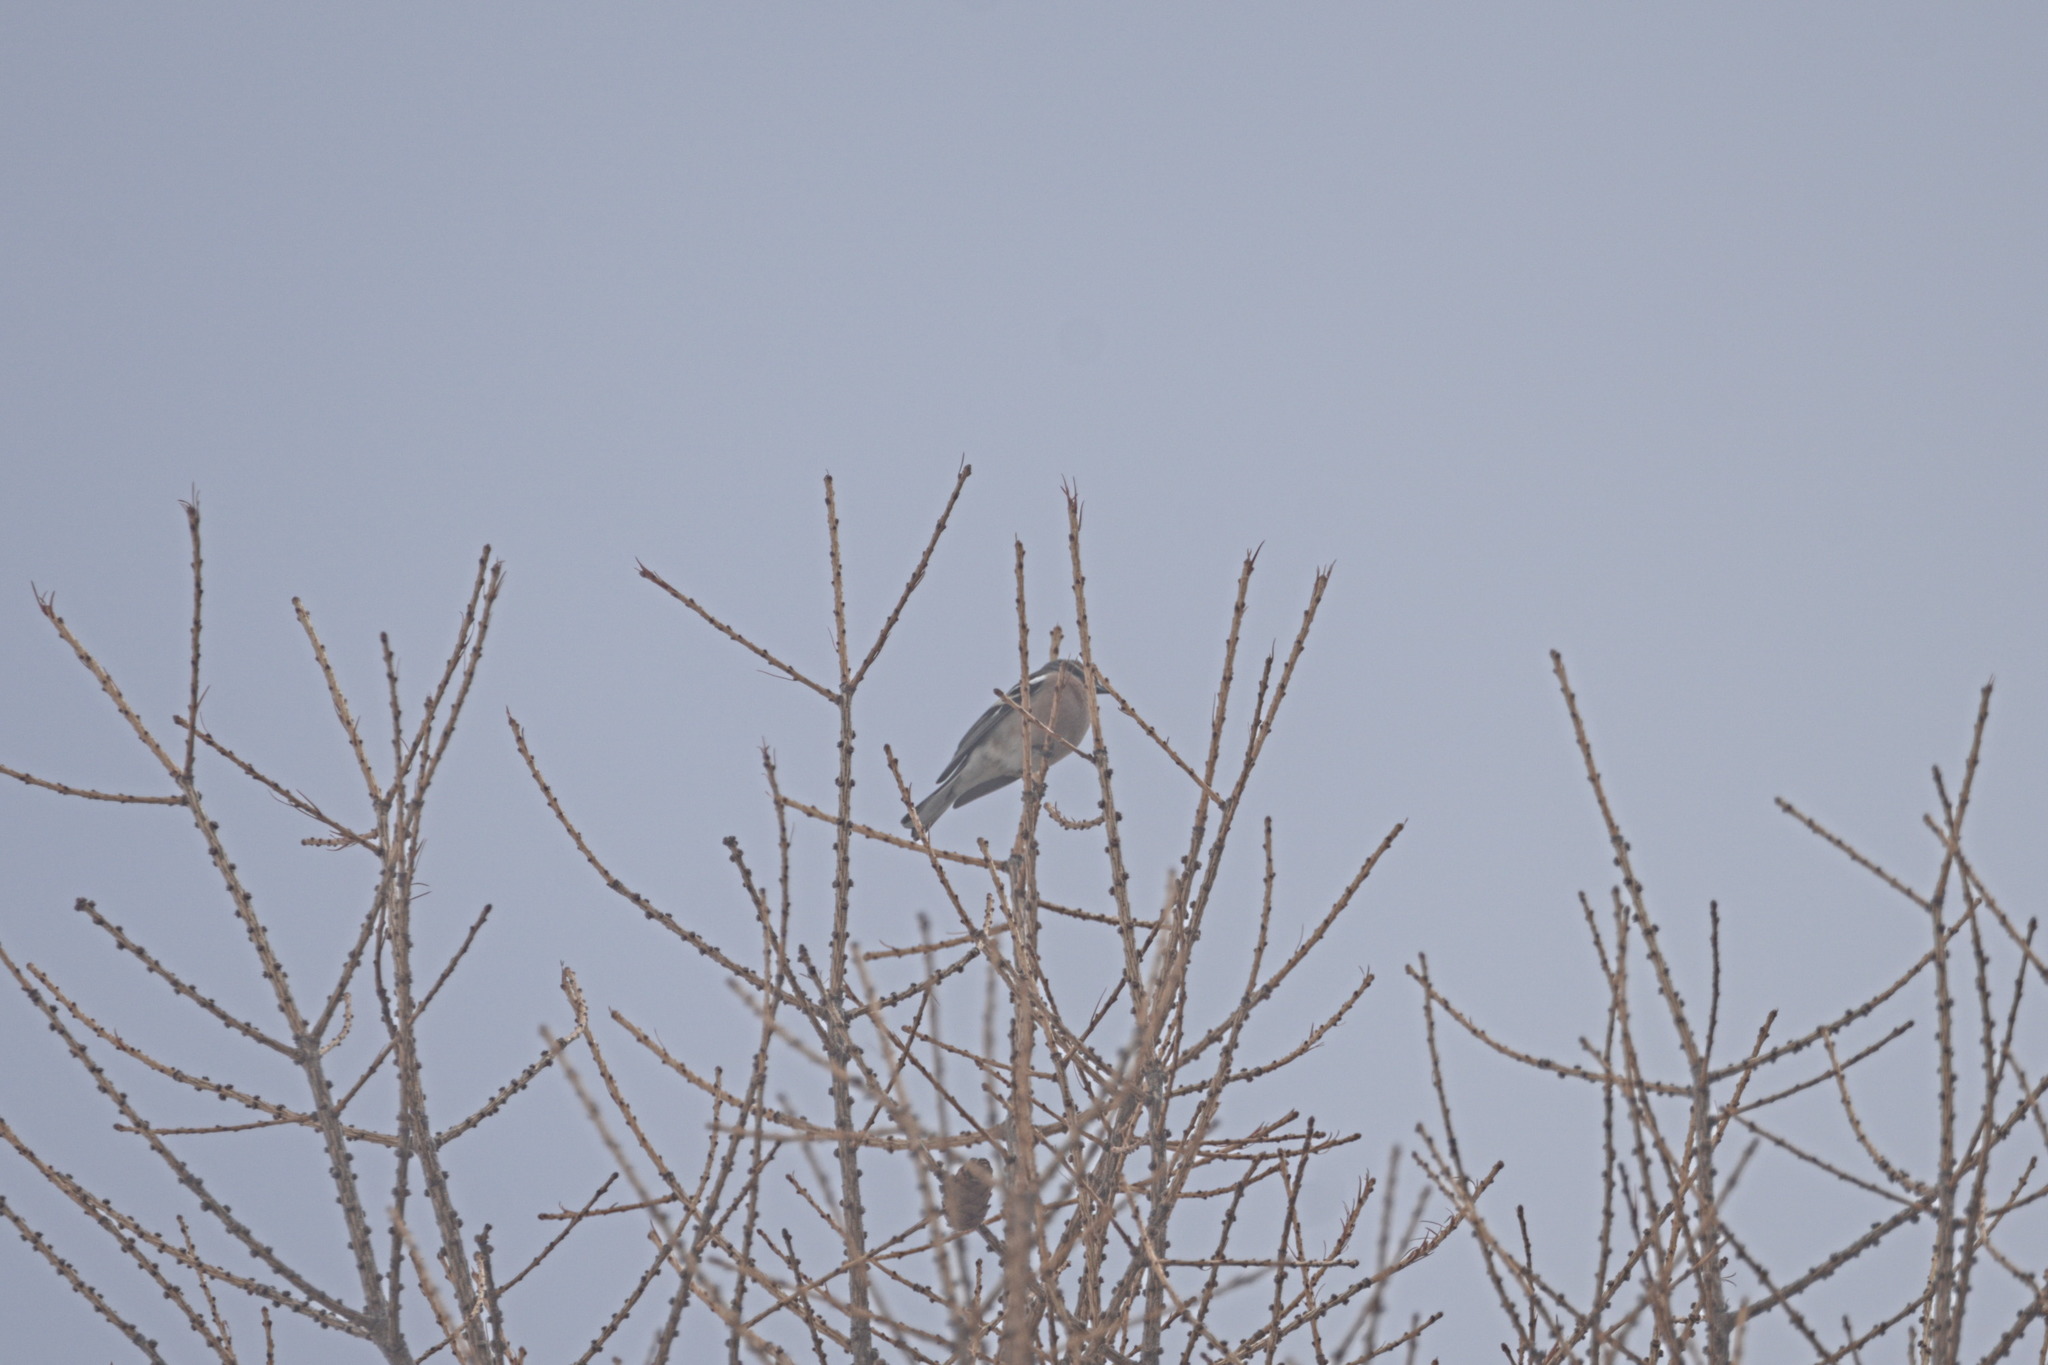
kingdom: Animalia
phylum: Chordata
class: Aves
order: Passeriformes
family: Fringillidae
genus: Fringilla
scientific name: Fringilla coelebs
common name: Common chaffinch
